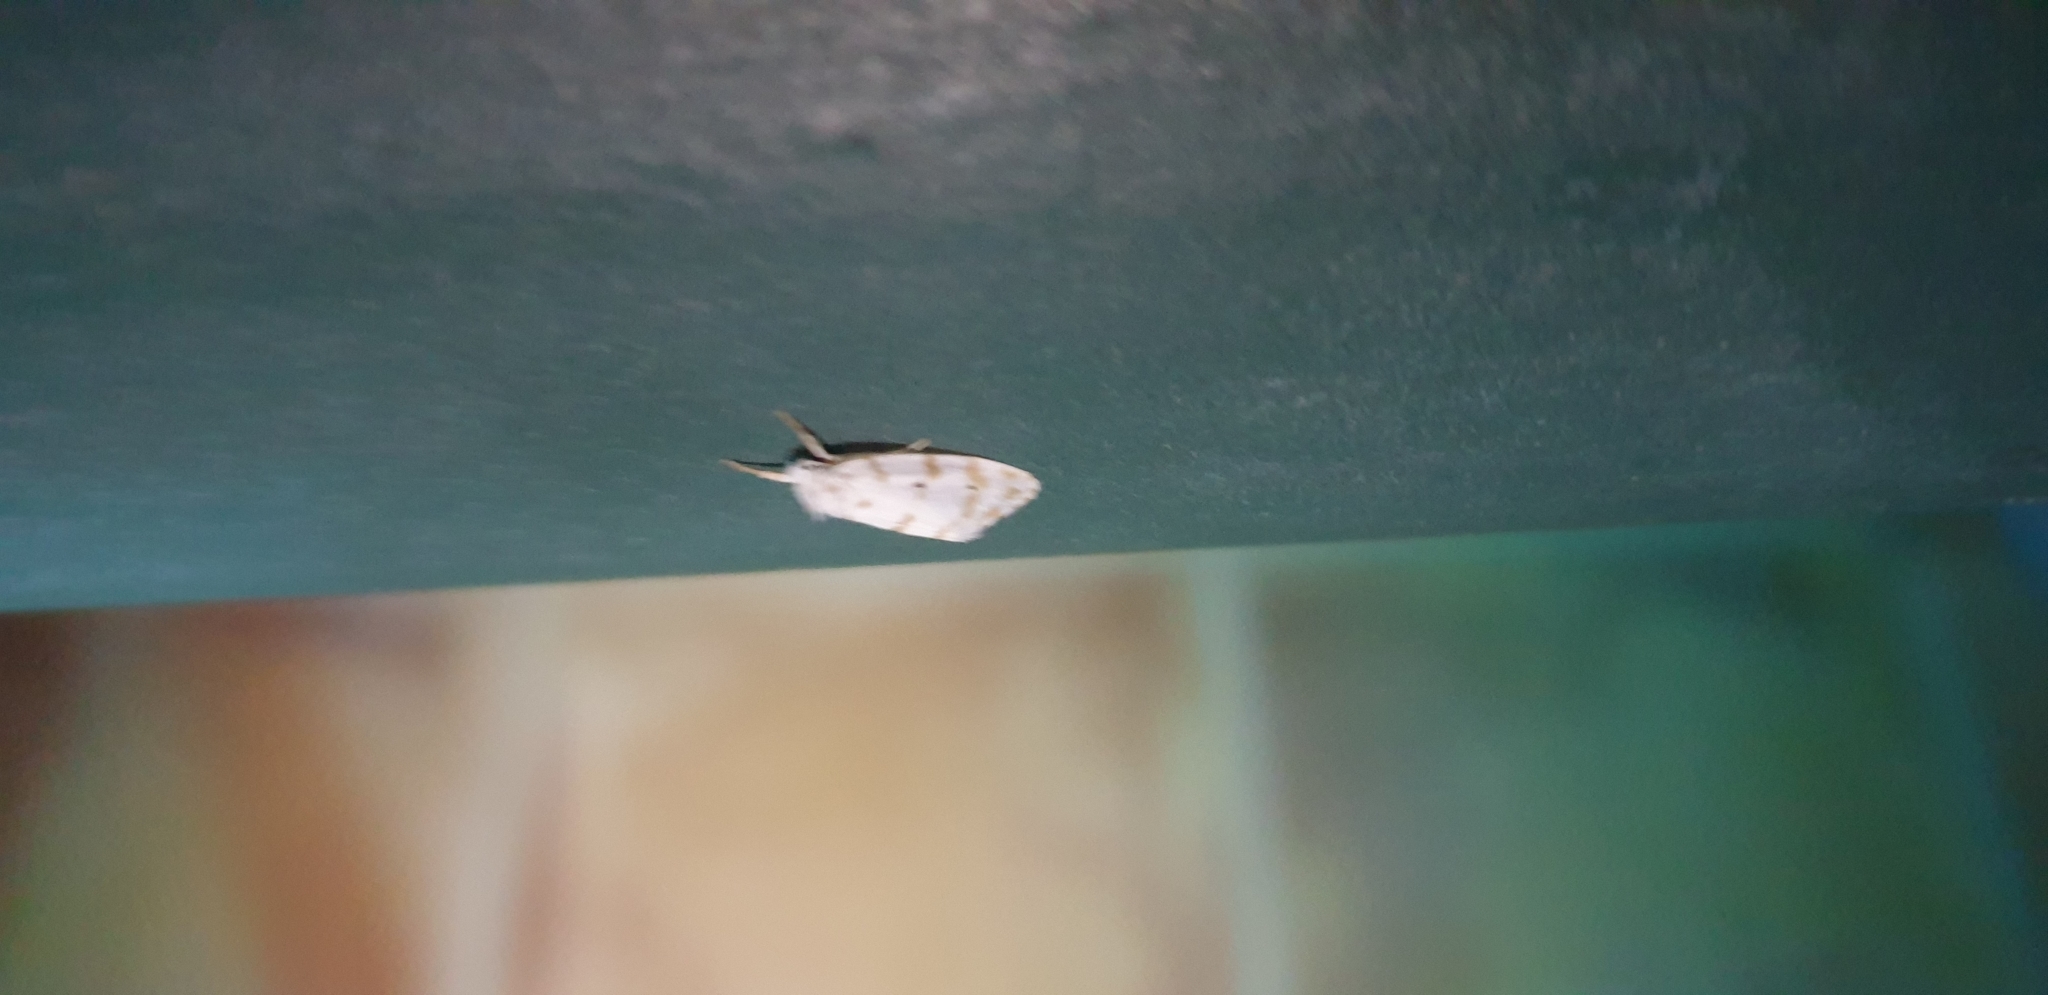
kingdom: Animalia
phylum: Arthropoda
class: Insecta
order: Lepidoptera
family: Erebidae
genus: Schistophleps
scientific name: Schistophleps albida
